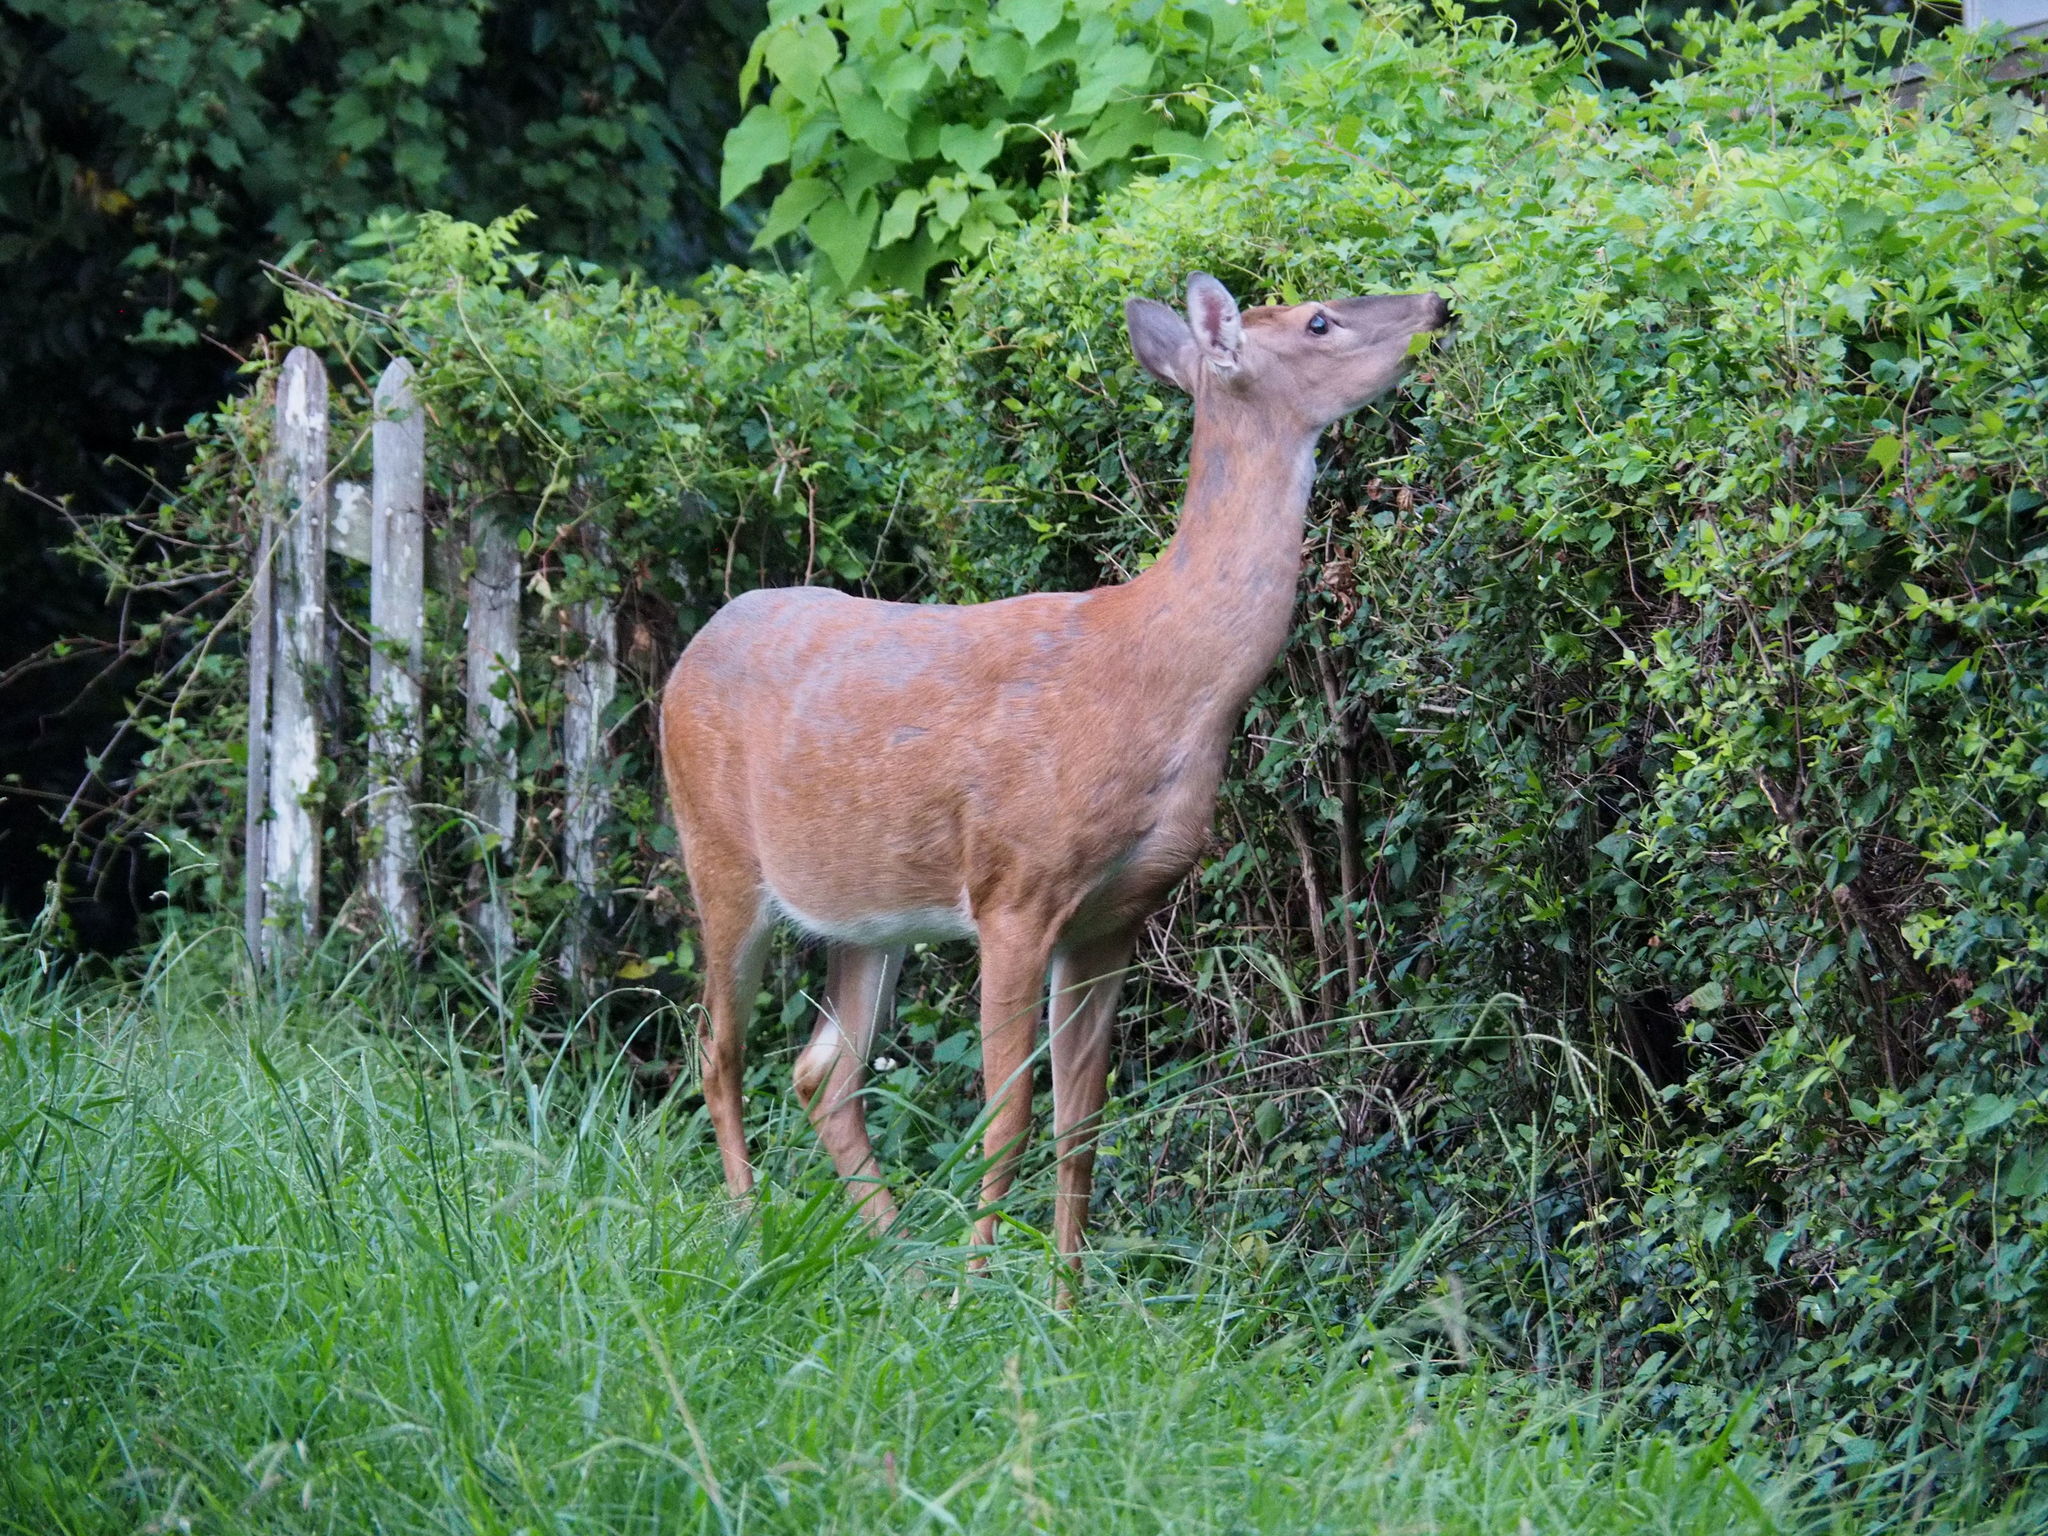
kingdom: Animalia
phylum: Chordata
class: Mammalia
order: Artiodactyla
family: Cervidae
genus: Odocoileus
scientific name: Odocoileus virginianus
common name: White-tailed deer
